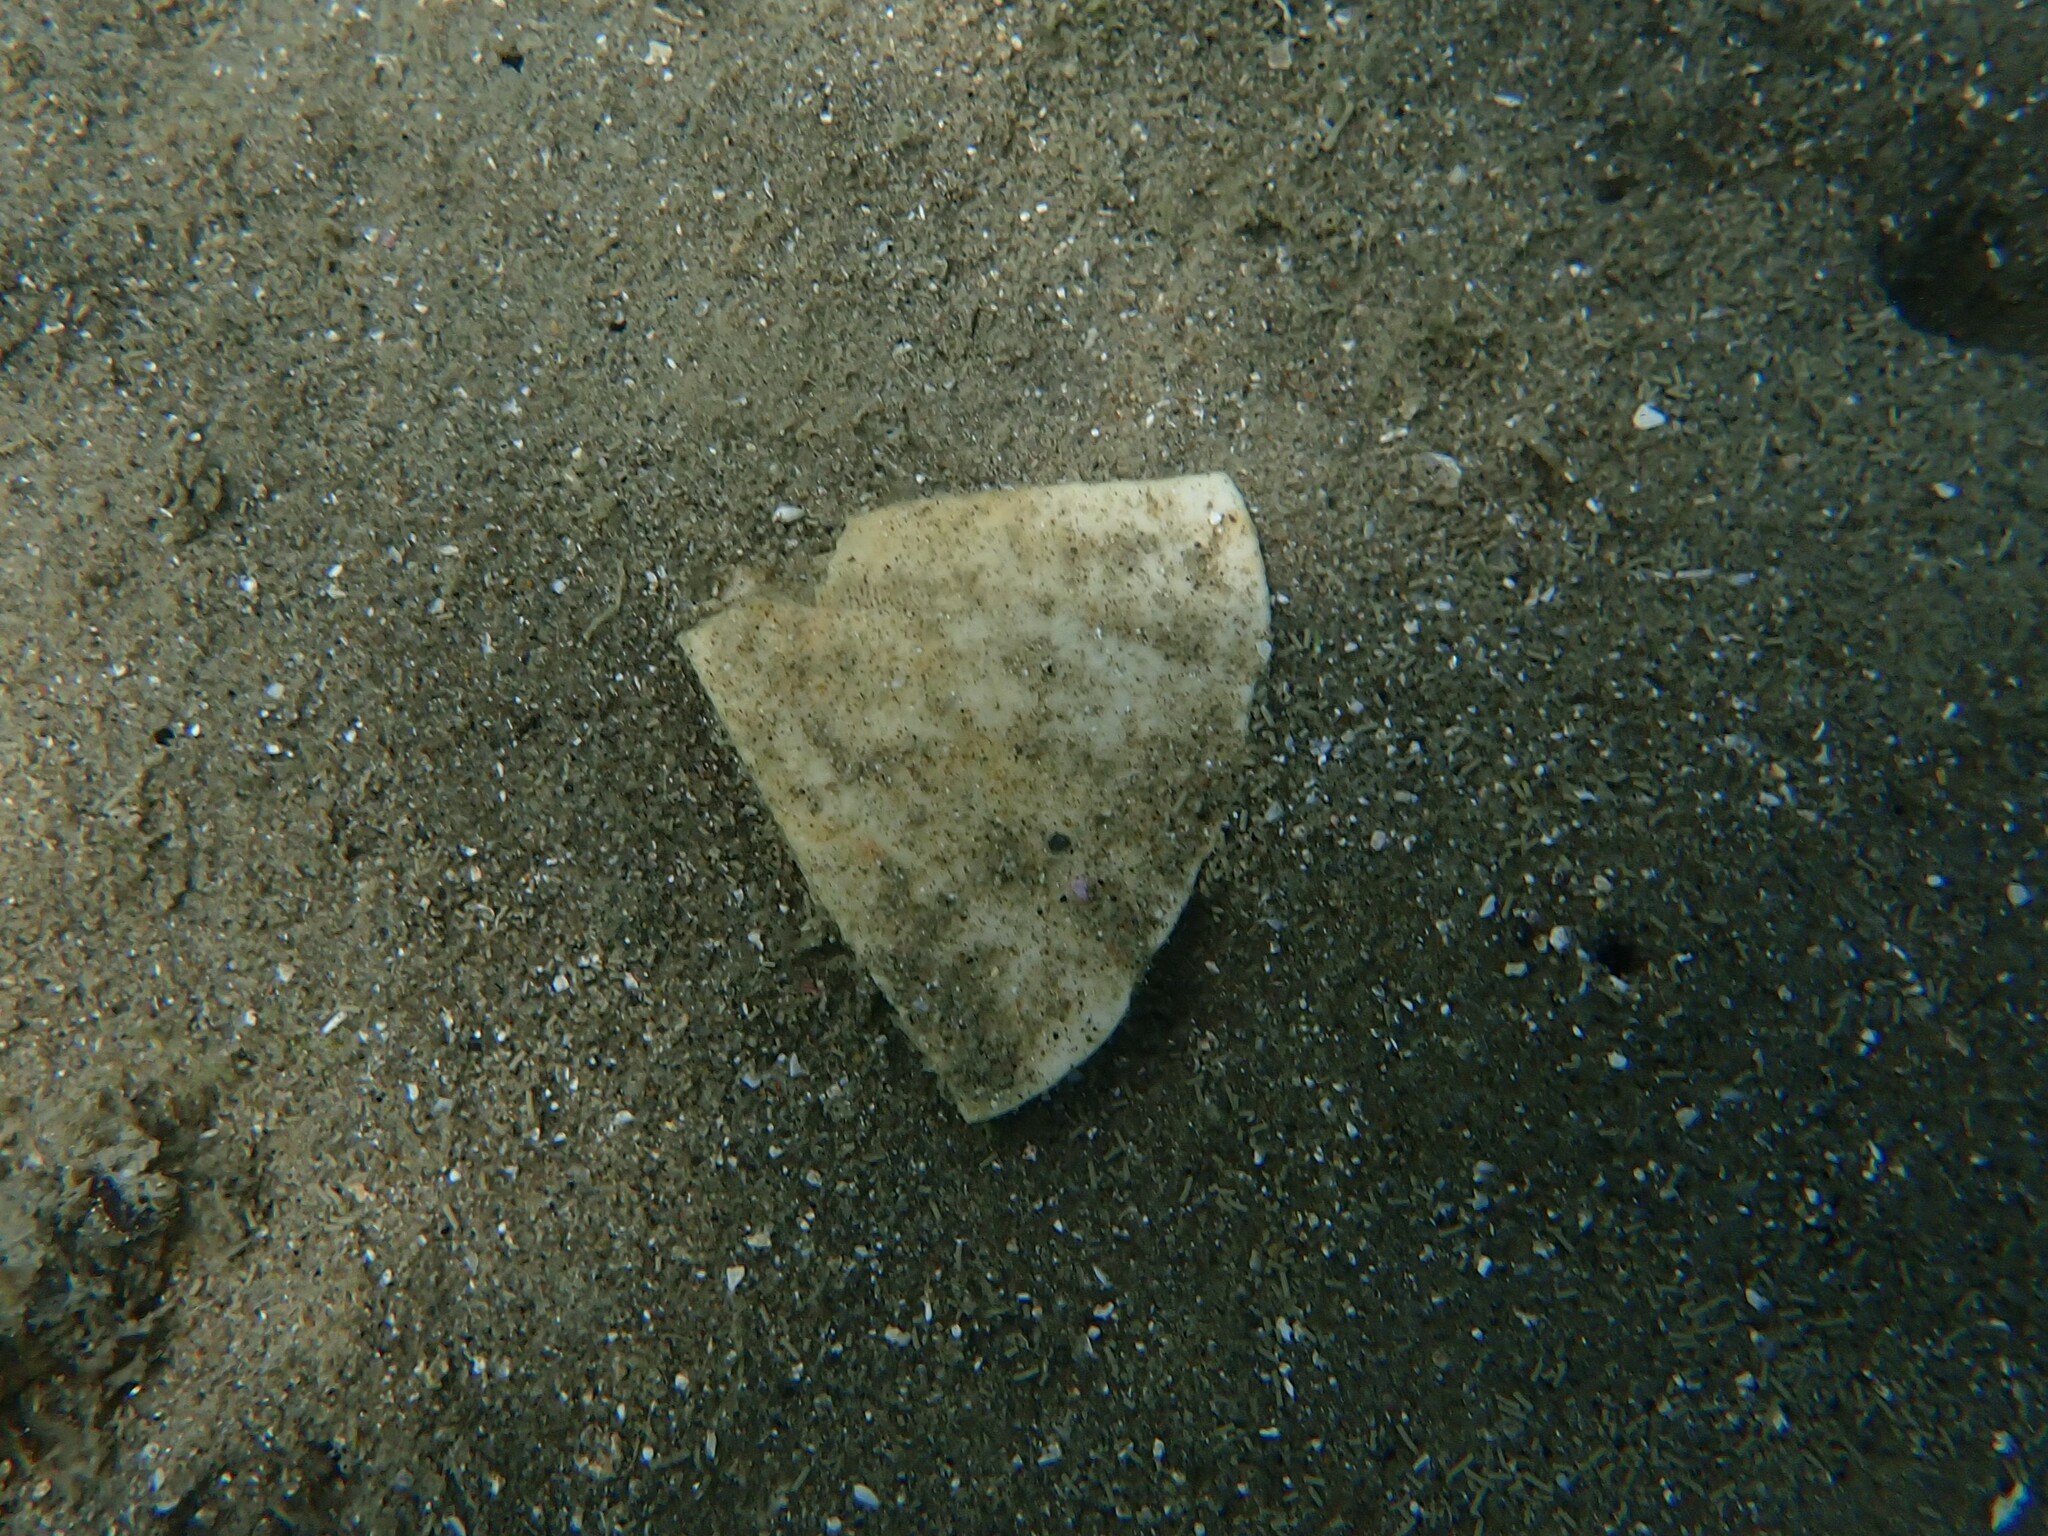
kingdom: Animalia
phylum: Echinodermata
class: Echinoidea
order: Clypeasteroida
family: Clypeasteridae
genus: Fellaster
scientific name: Fellaster zelandiae
